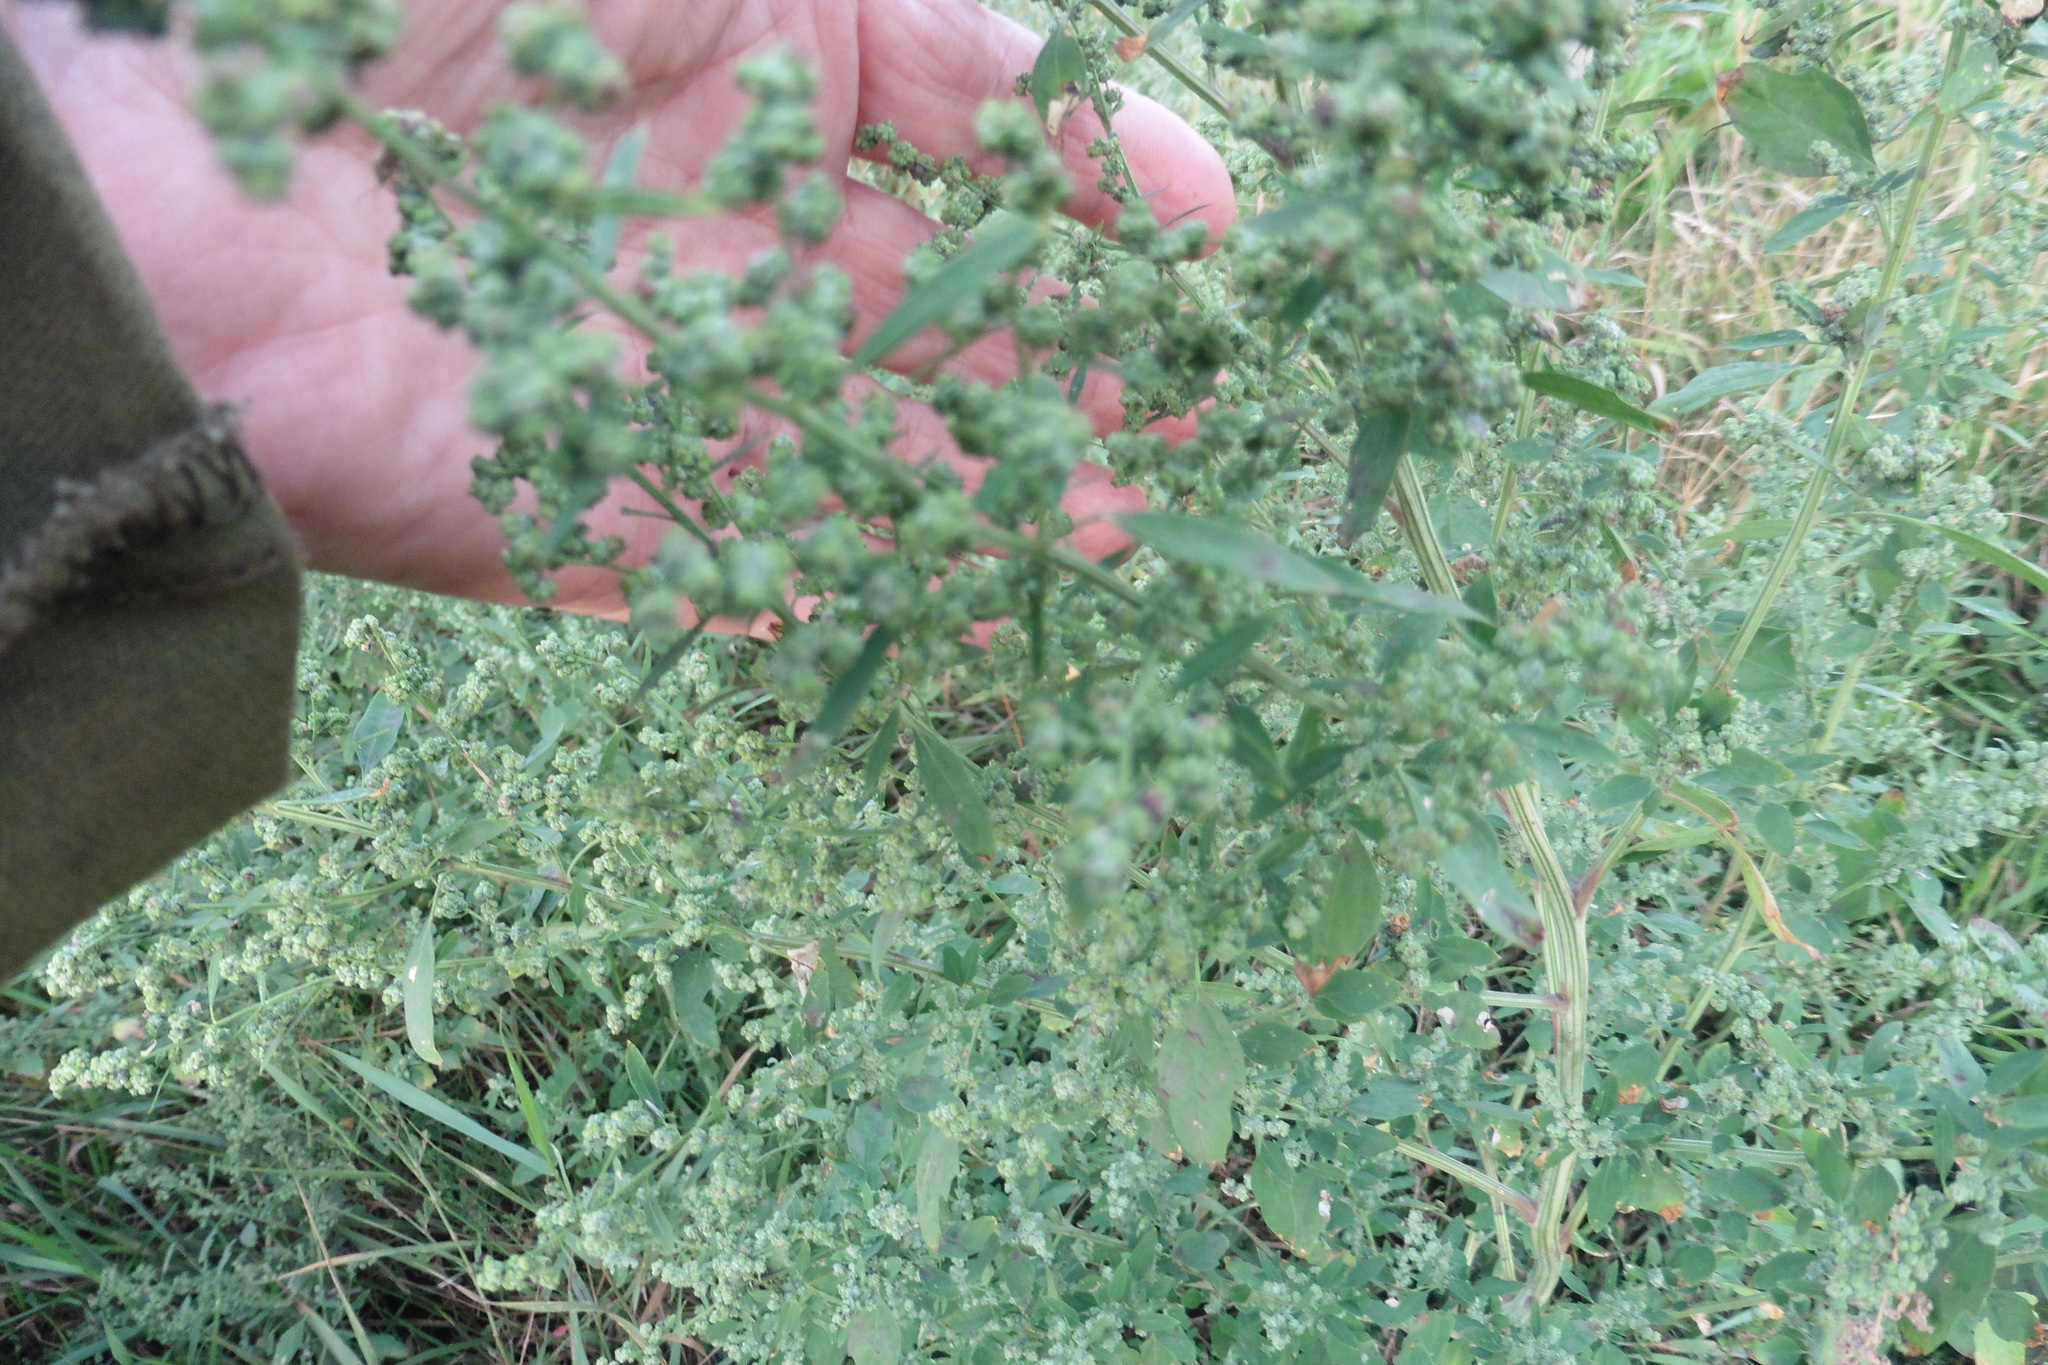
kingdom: Plantae
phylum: Tracheophyta
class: Magnoliopsida
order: Caryophyllales
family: Amaranthaceae
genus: Chenopodium
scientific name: Chenopodium album
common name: Fat-hen
